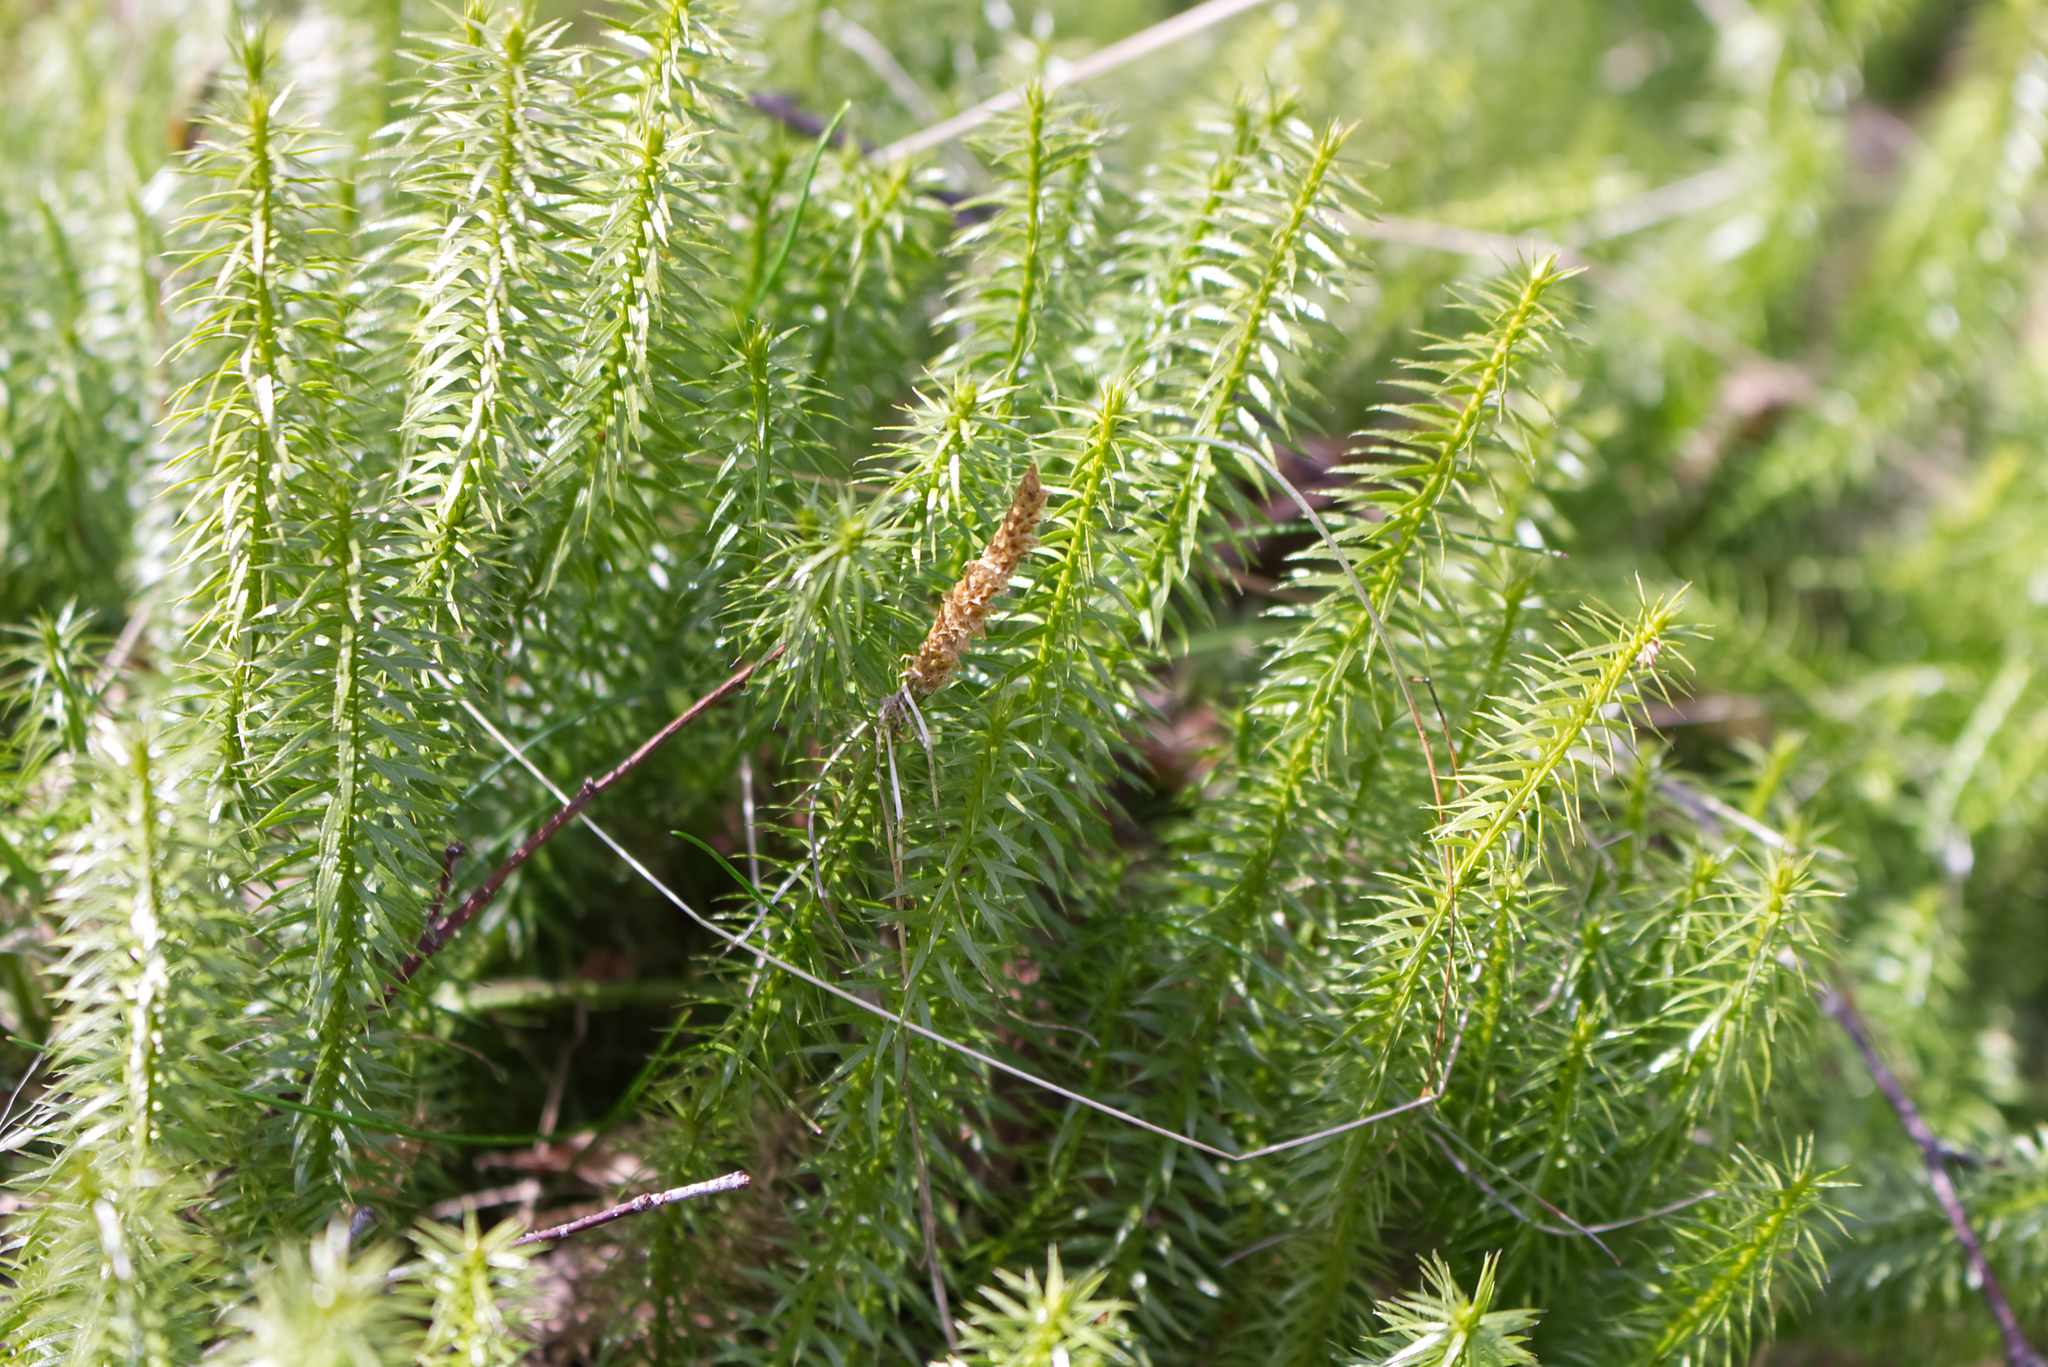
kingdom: Plantae
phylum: Tracheophyta
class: Lycopodiopsida
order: Lycopodiales
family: Lycopodiaceae
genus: Spinulum
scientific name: Spinulum annotinum
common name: Interrupted club-moss
